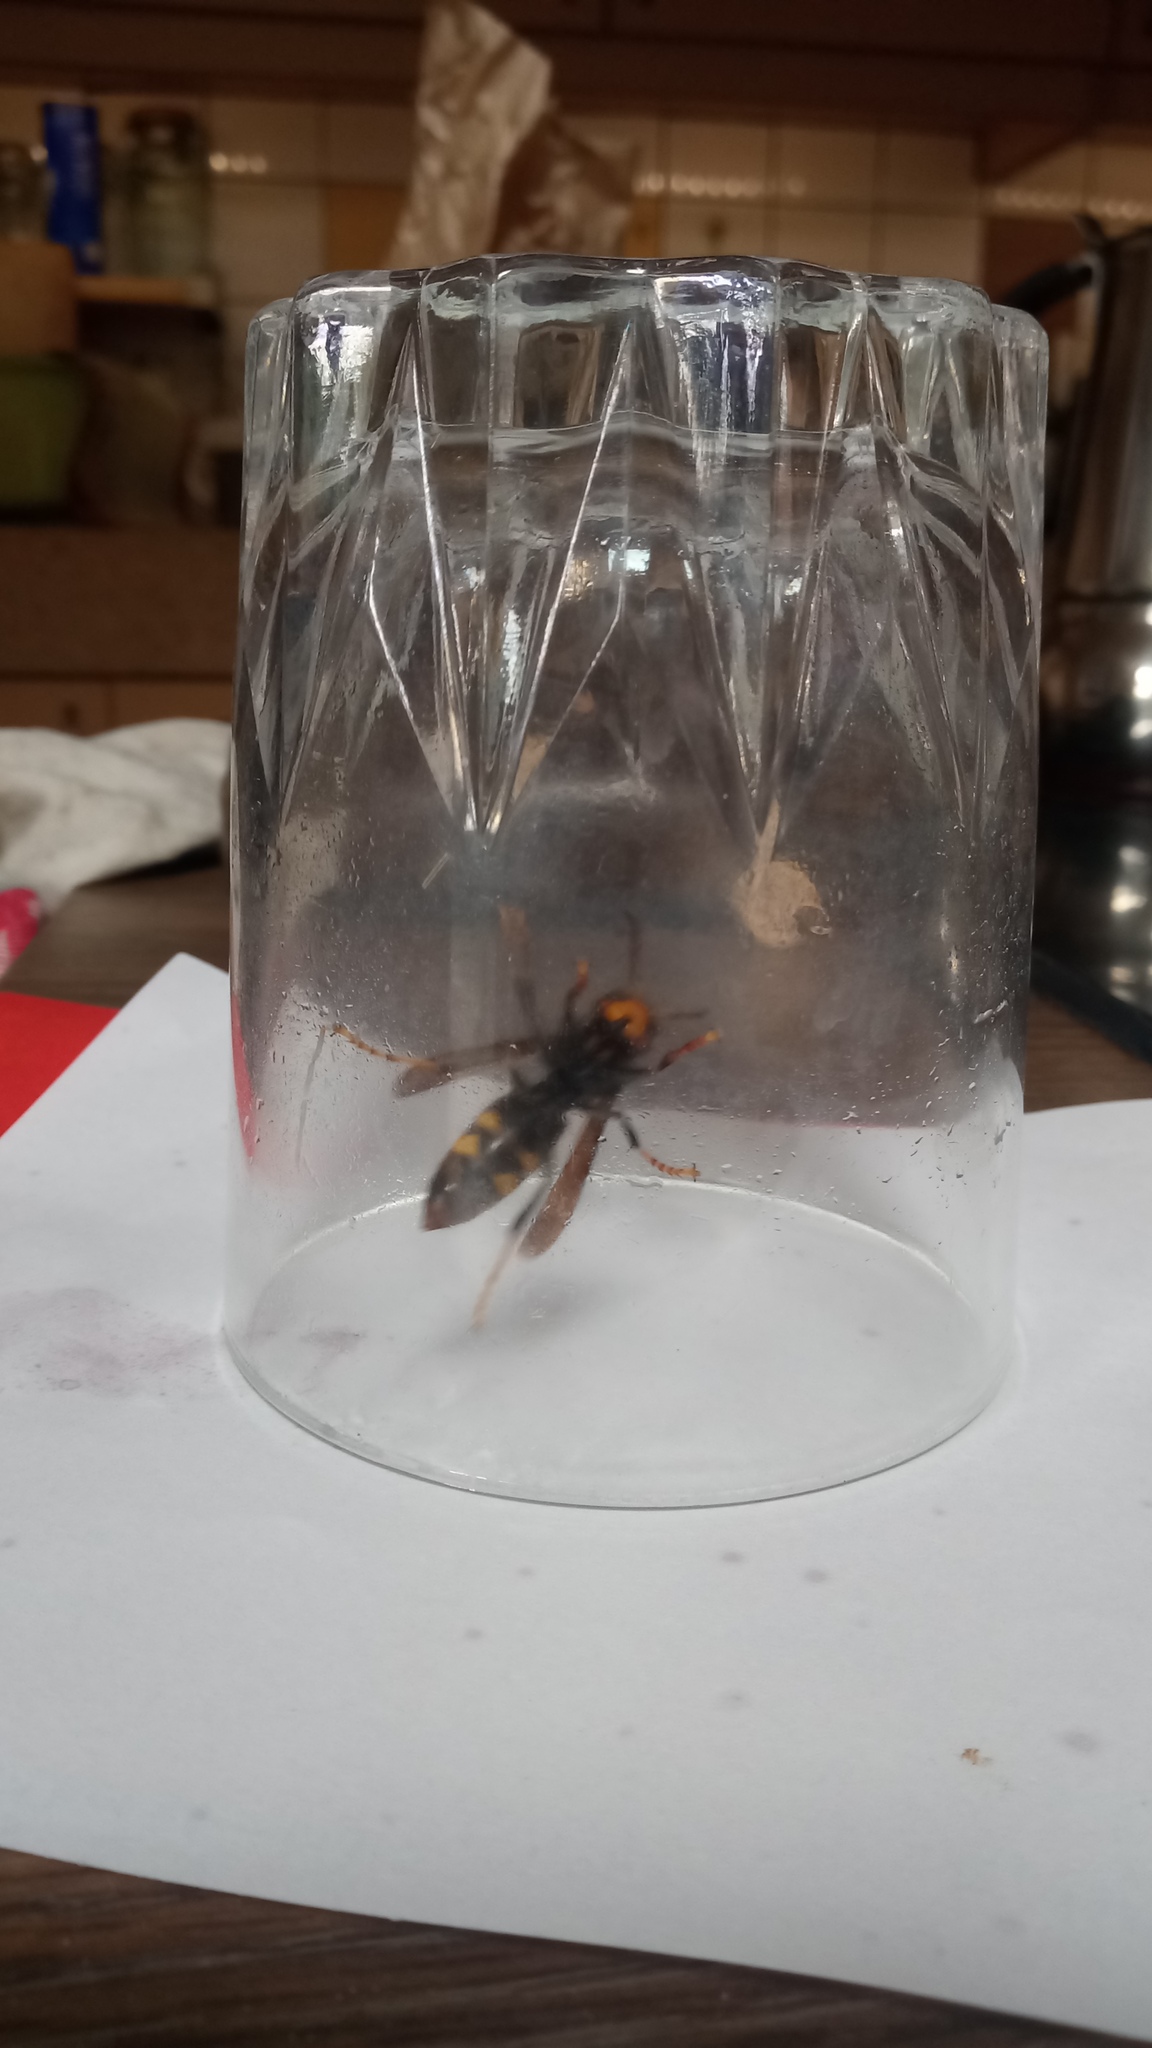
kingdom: Animalia
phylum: Arthropoda
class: Insecta
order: Hymenoptera
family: Vespidae
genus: Vespa
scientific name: Vespa velutina
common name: Asian hornet
